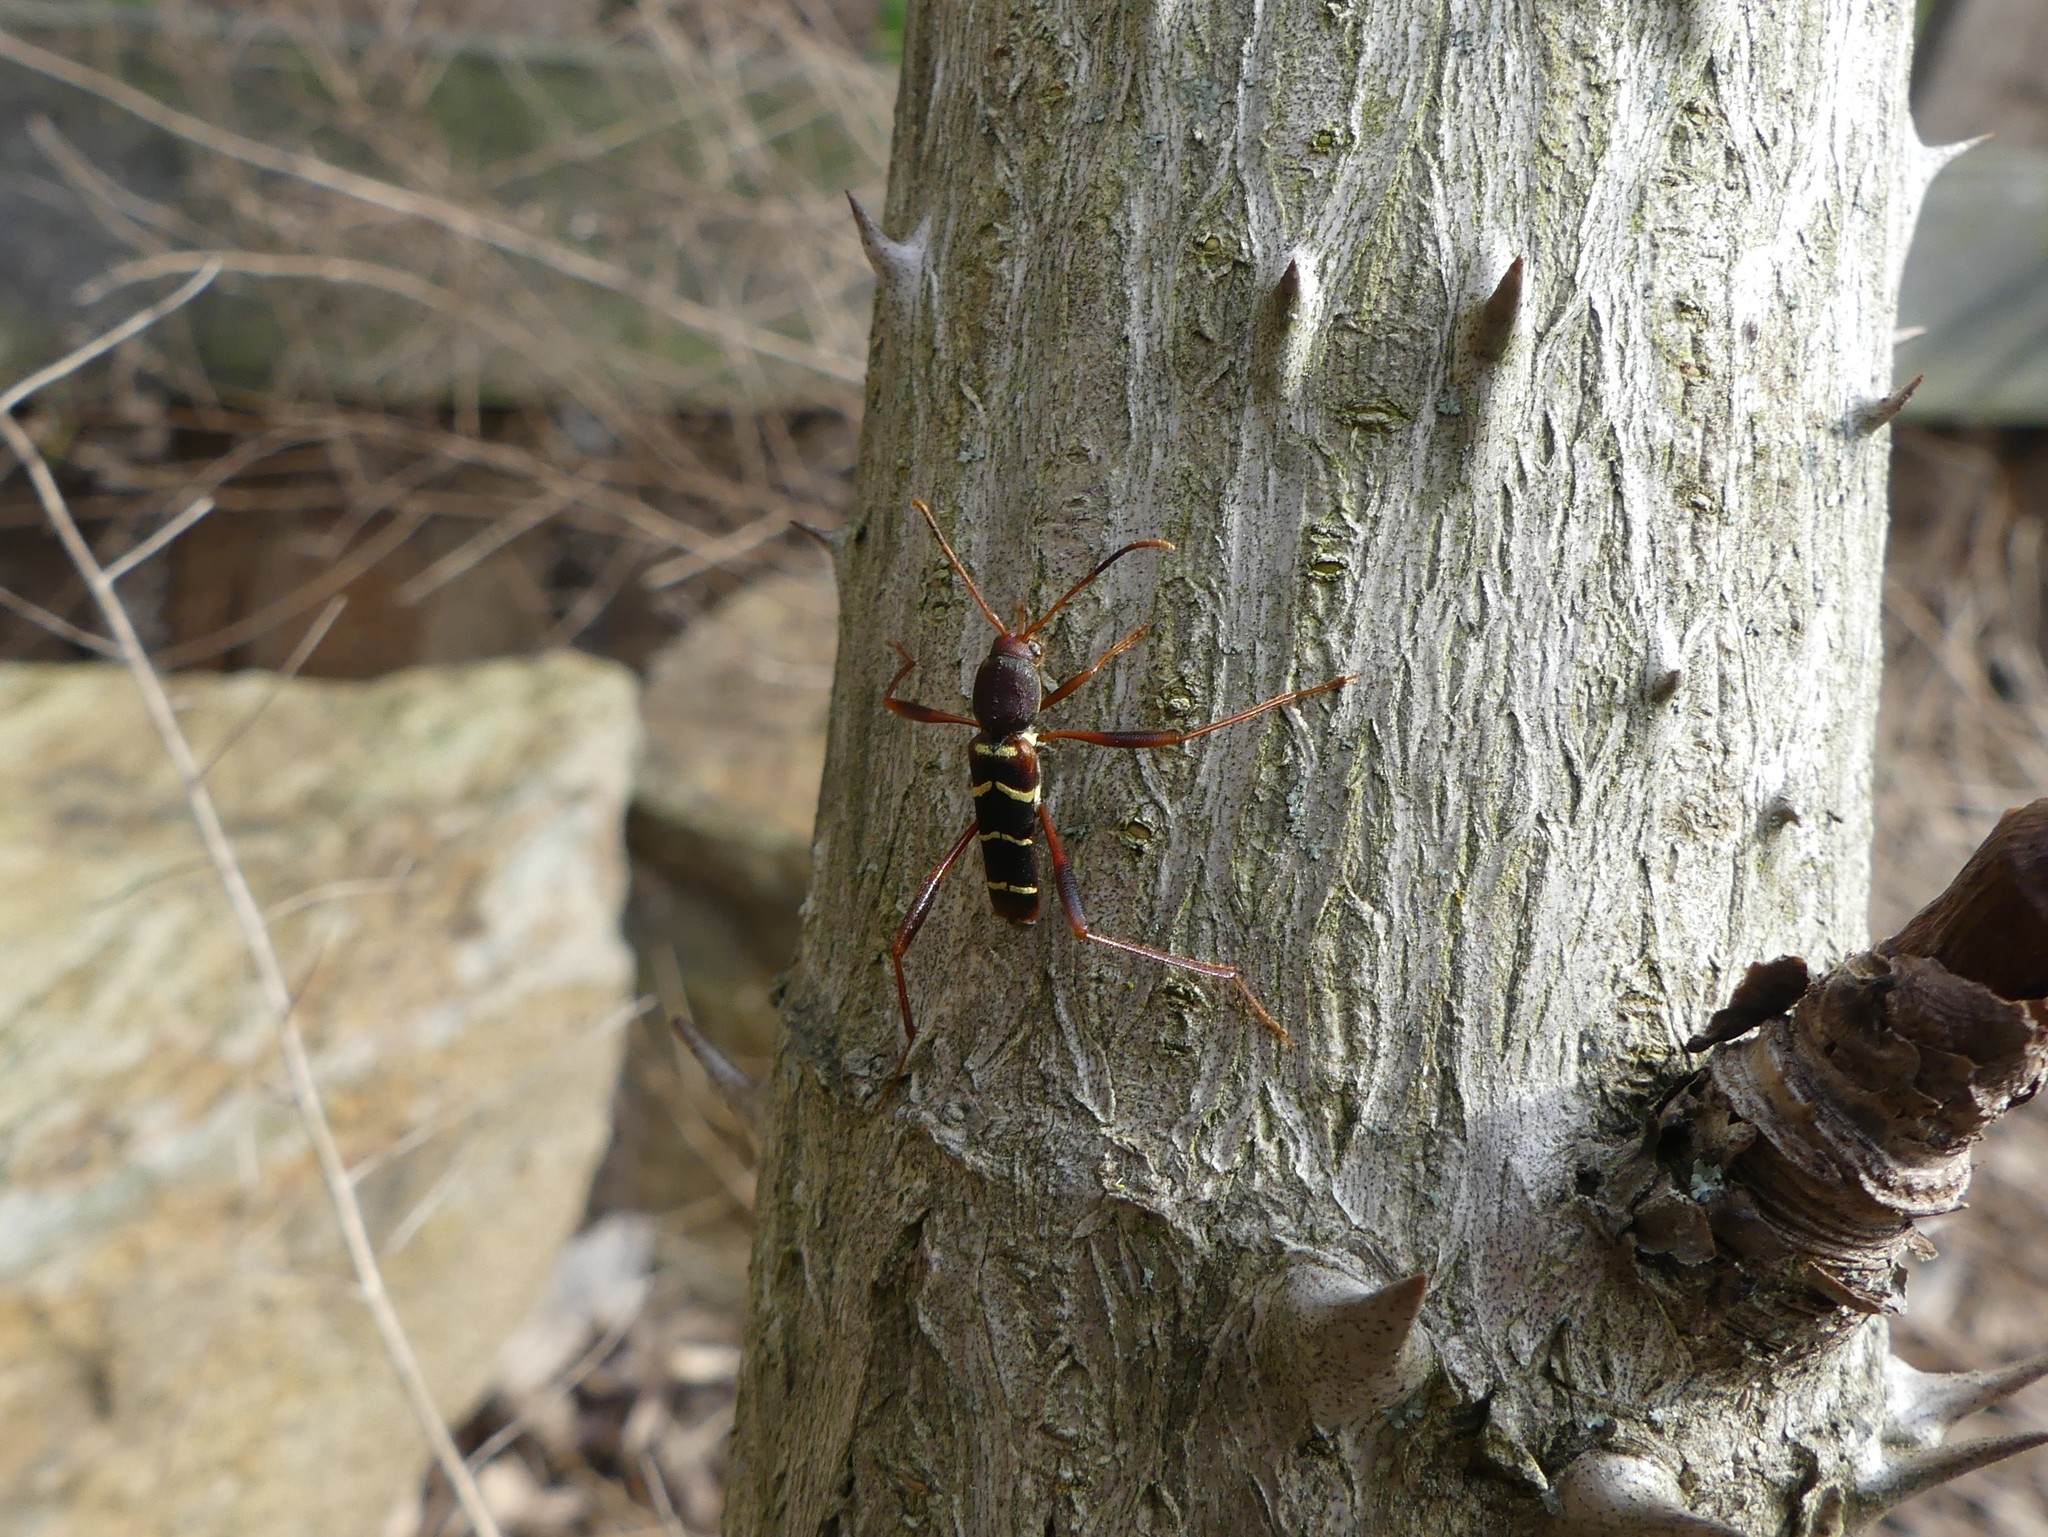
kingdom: Animalia
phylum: Arthropoda
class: Insecta
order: Coleoptera
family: Cerambycidae
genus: Neoclytus
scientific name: Neoclytus acuminatus
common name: Read-headed ash borer
